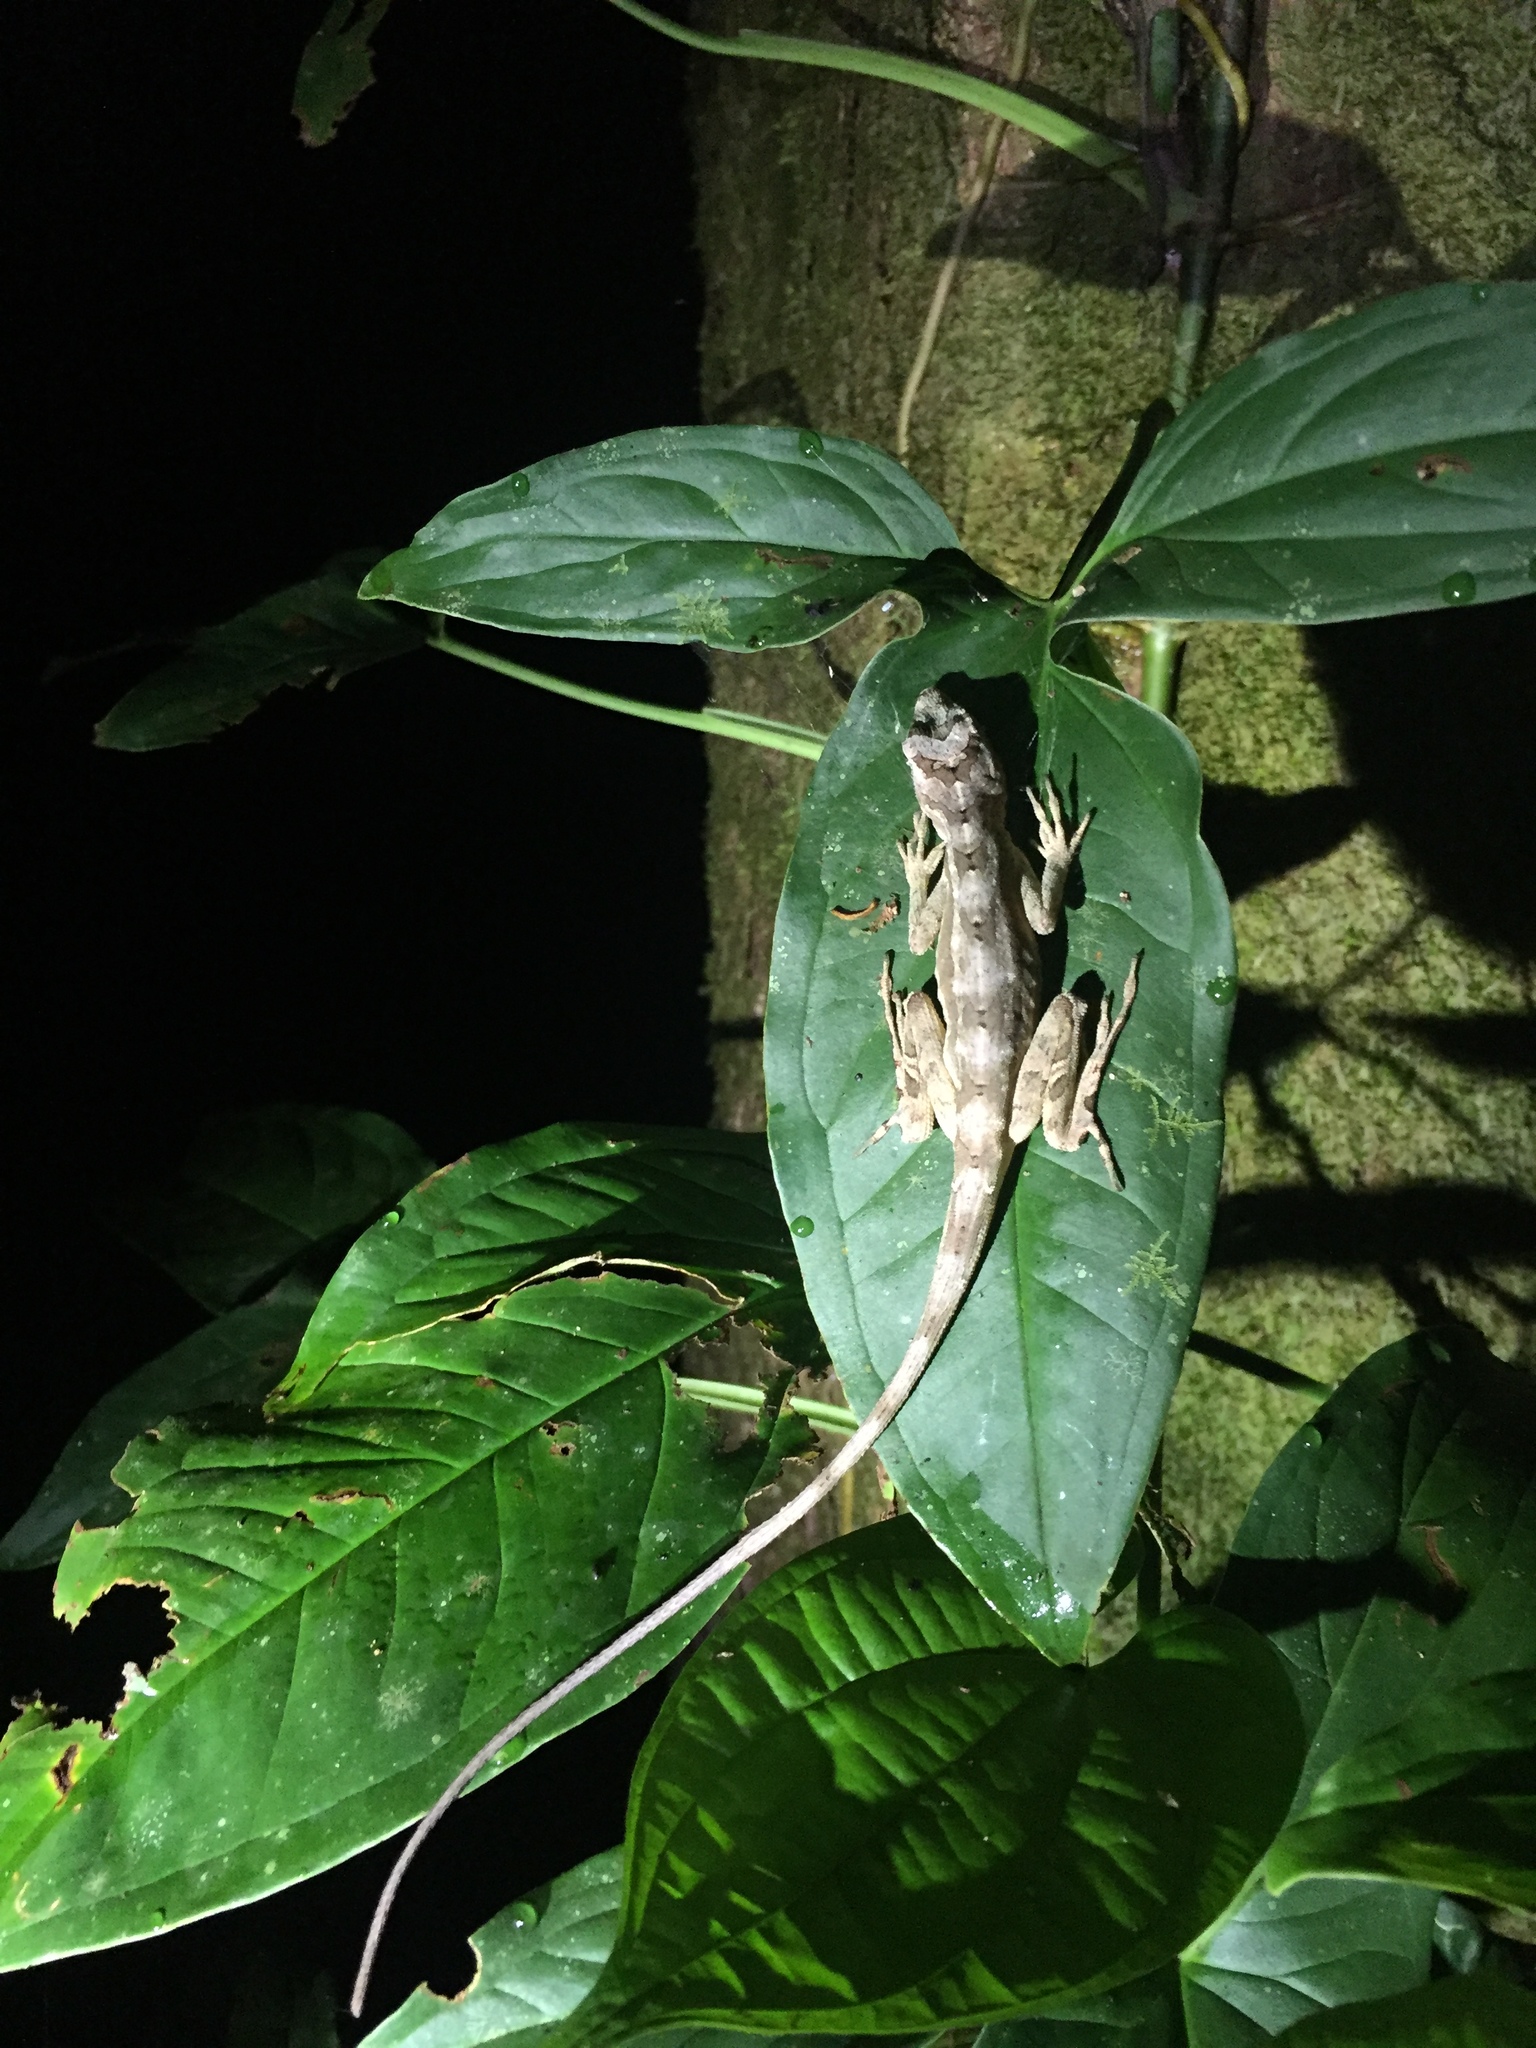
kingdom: Animalia
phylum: Chordata
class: Squamata
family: Dactyloidae
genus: Anolis
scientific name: Anolis lemurinus
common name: Ghost anole
